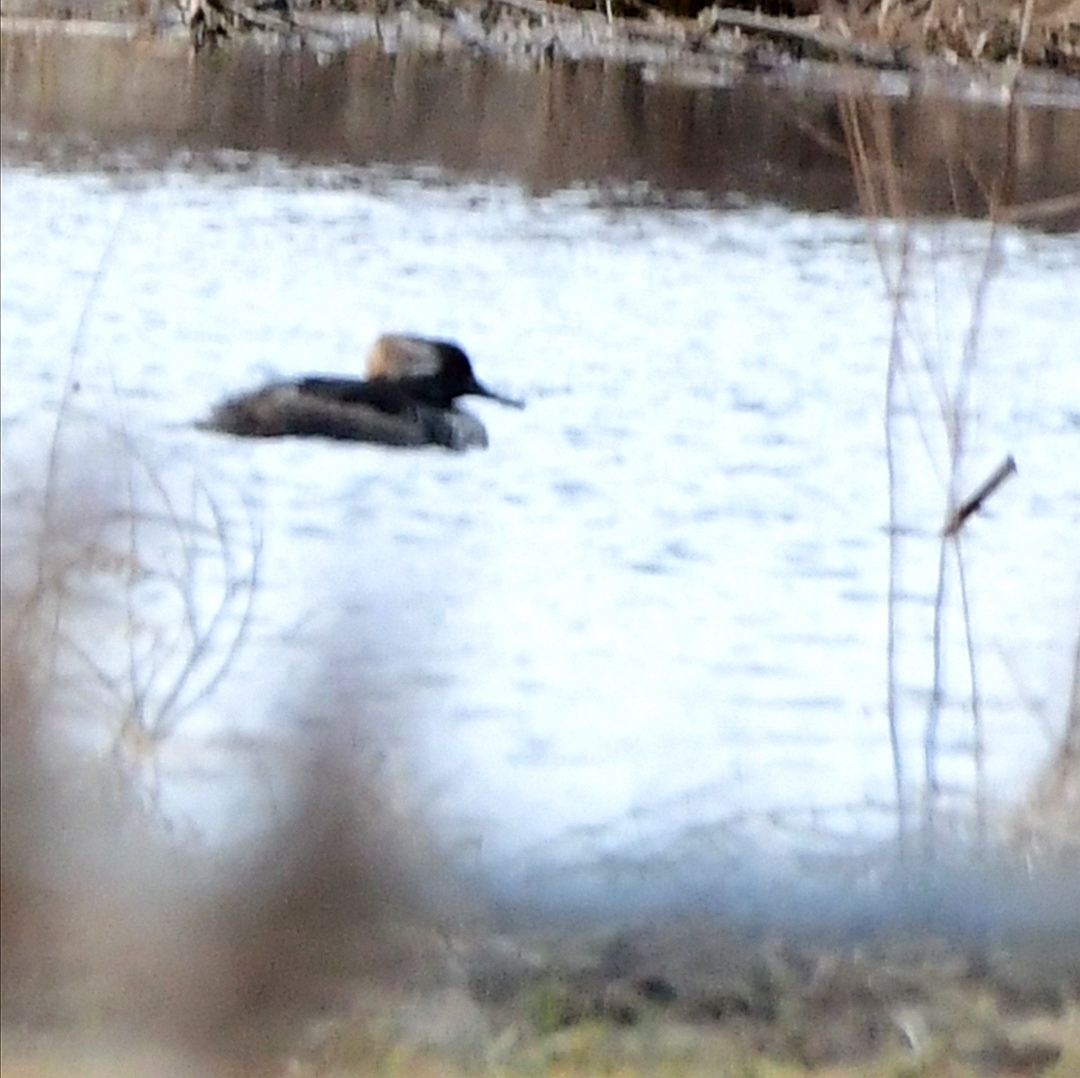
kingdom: Animalia
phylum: Chordata
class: Aves
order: Anseriformes
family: Anatidae
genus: Lophodytes
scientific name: Lophodytes cucullatus
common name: Hooded merganser
